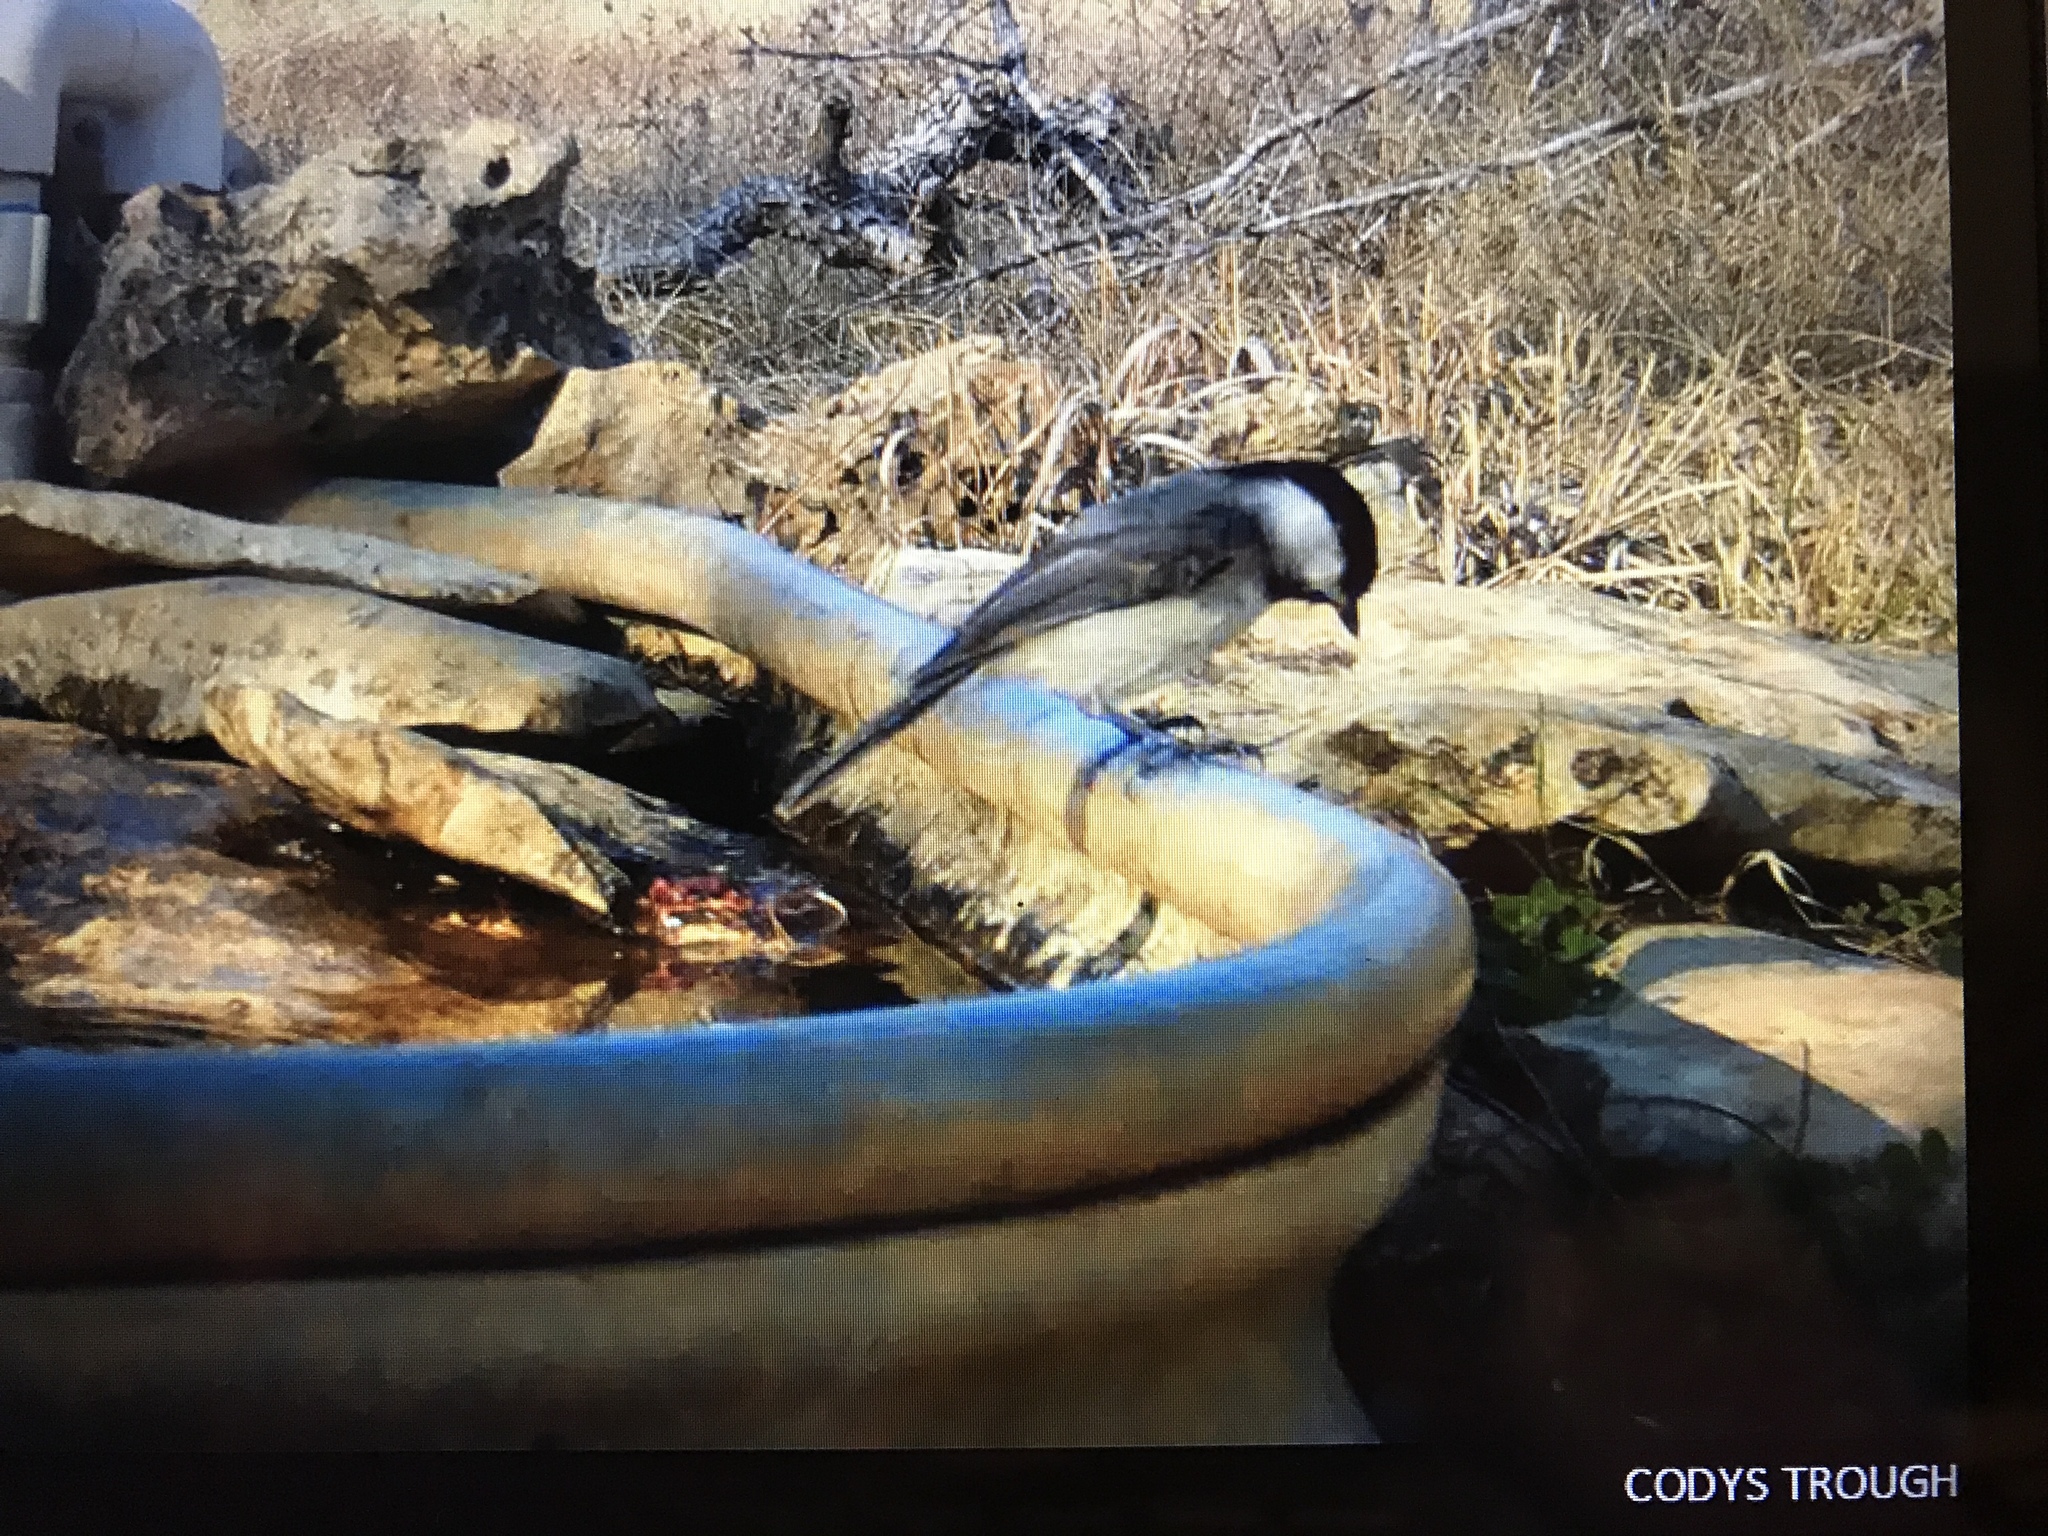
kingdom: Animalia
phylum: Chordata
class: Aves
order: Passeriformes
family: Paridae
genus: Poecile
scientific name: Poecile carolinensis
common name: Carolina chickadee
